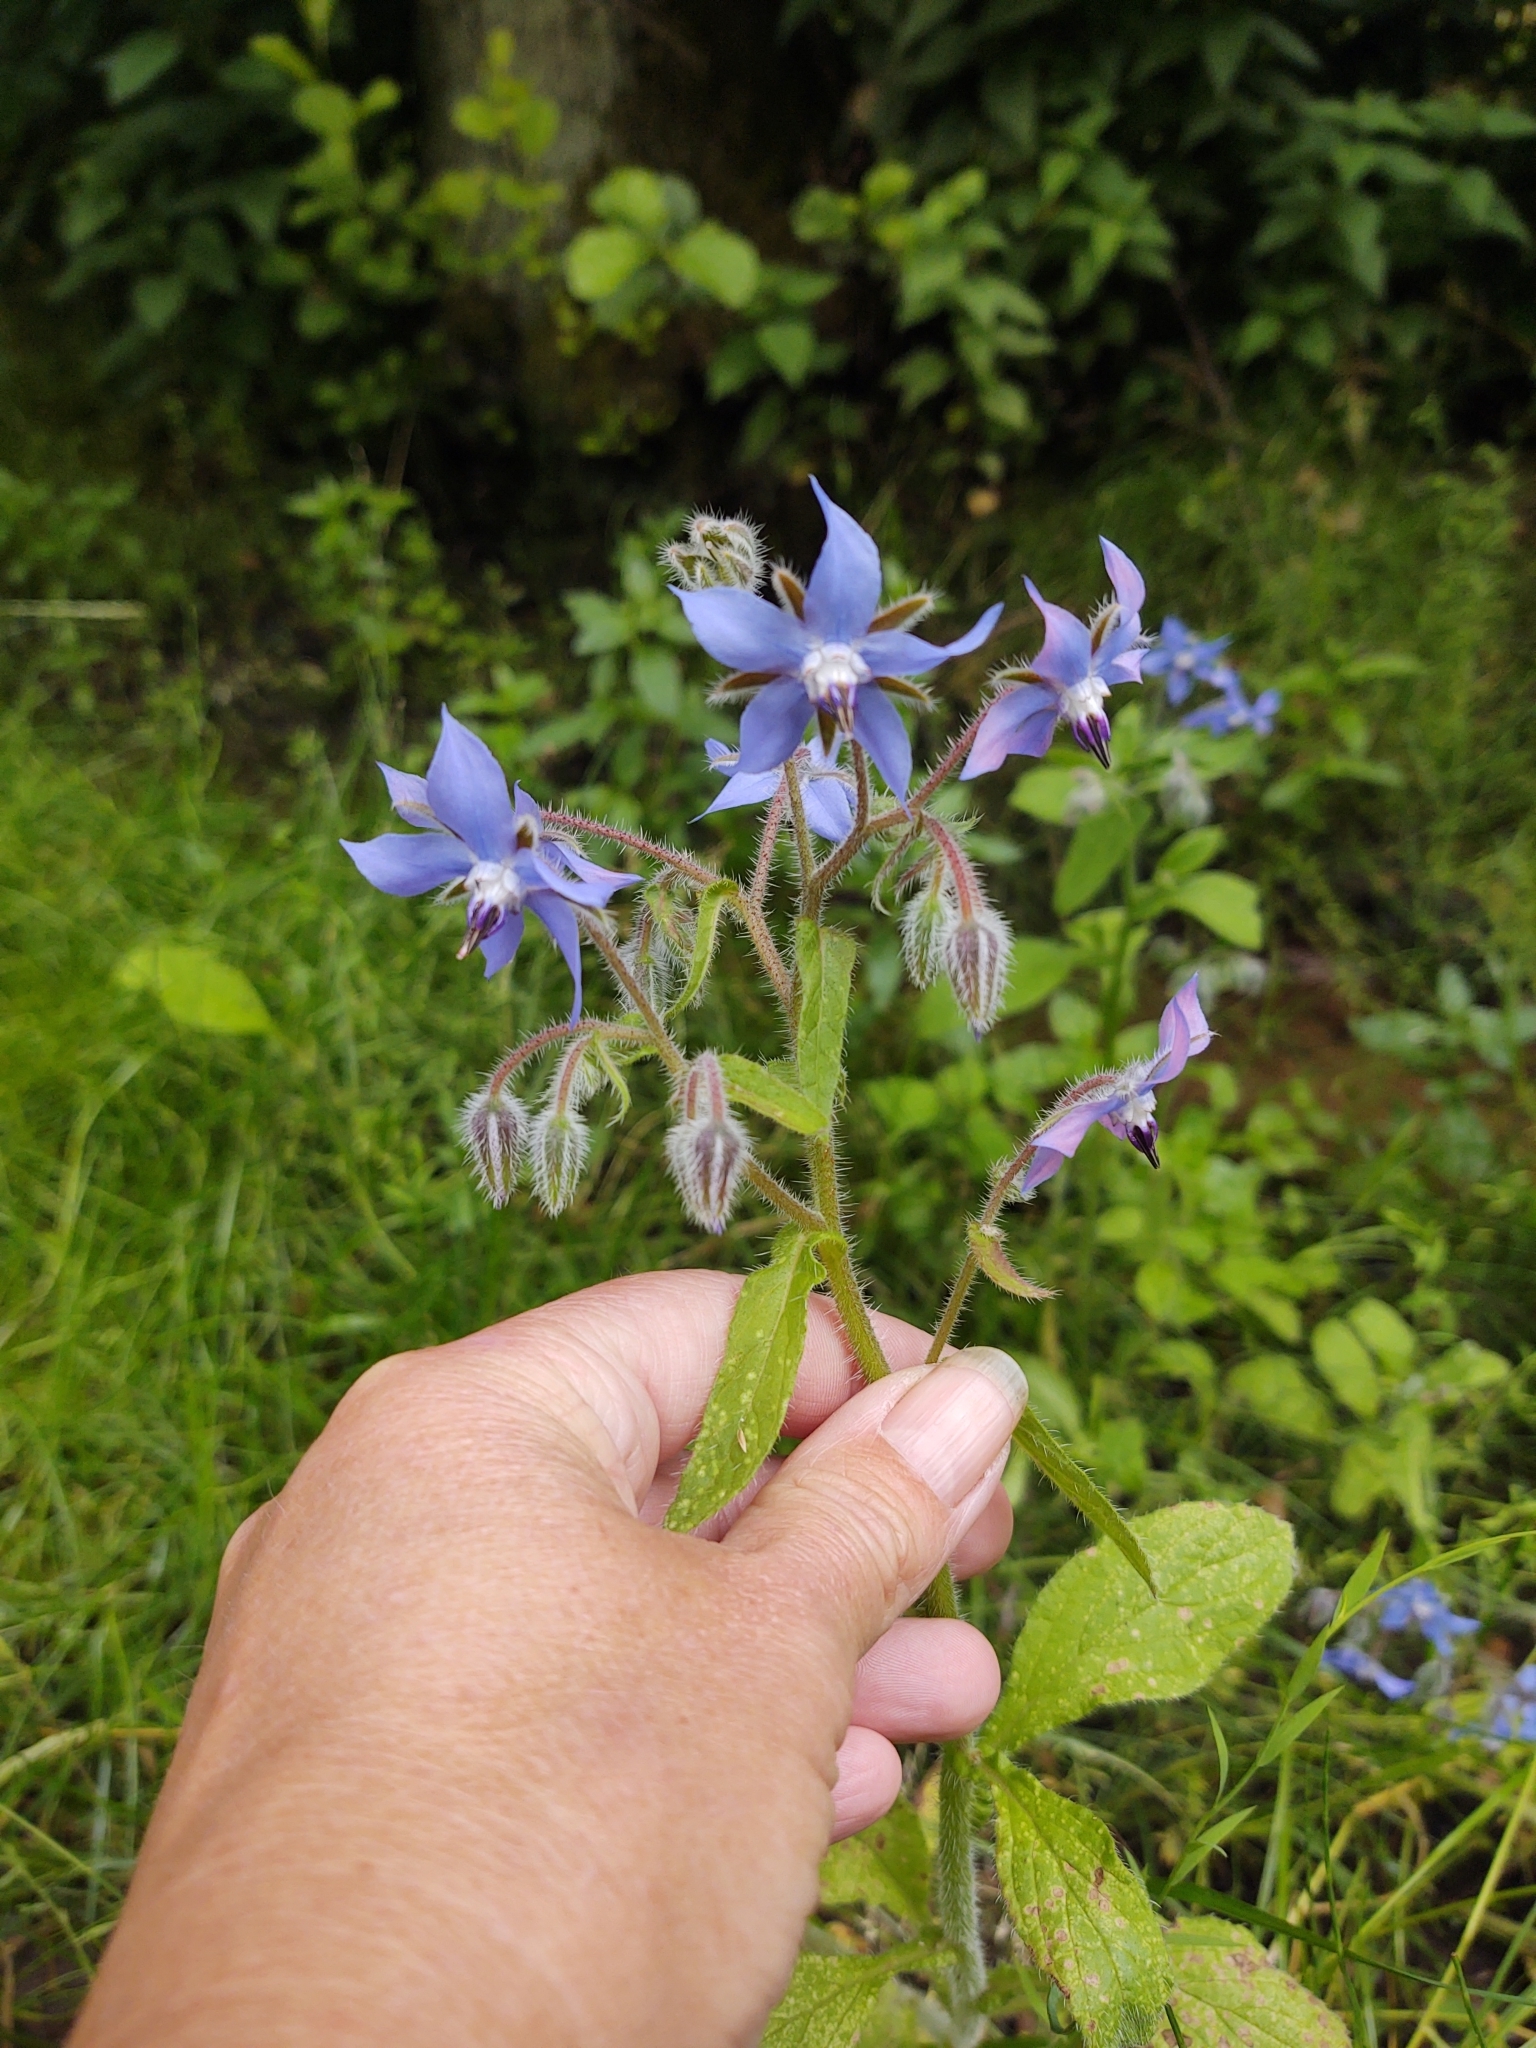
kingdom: Plantae
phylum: Tracheophyta
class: Magnoliopsida
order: Boraginales
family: Boraginaceae
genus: Borago
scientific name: Borago officinalis
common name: Borage
